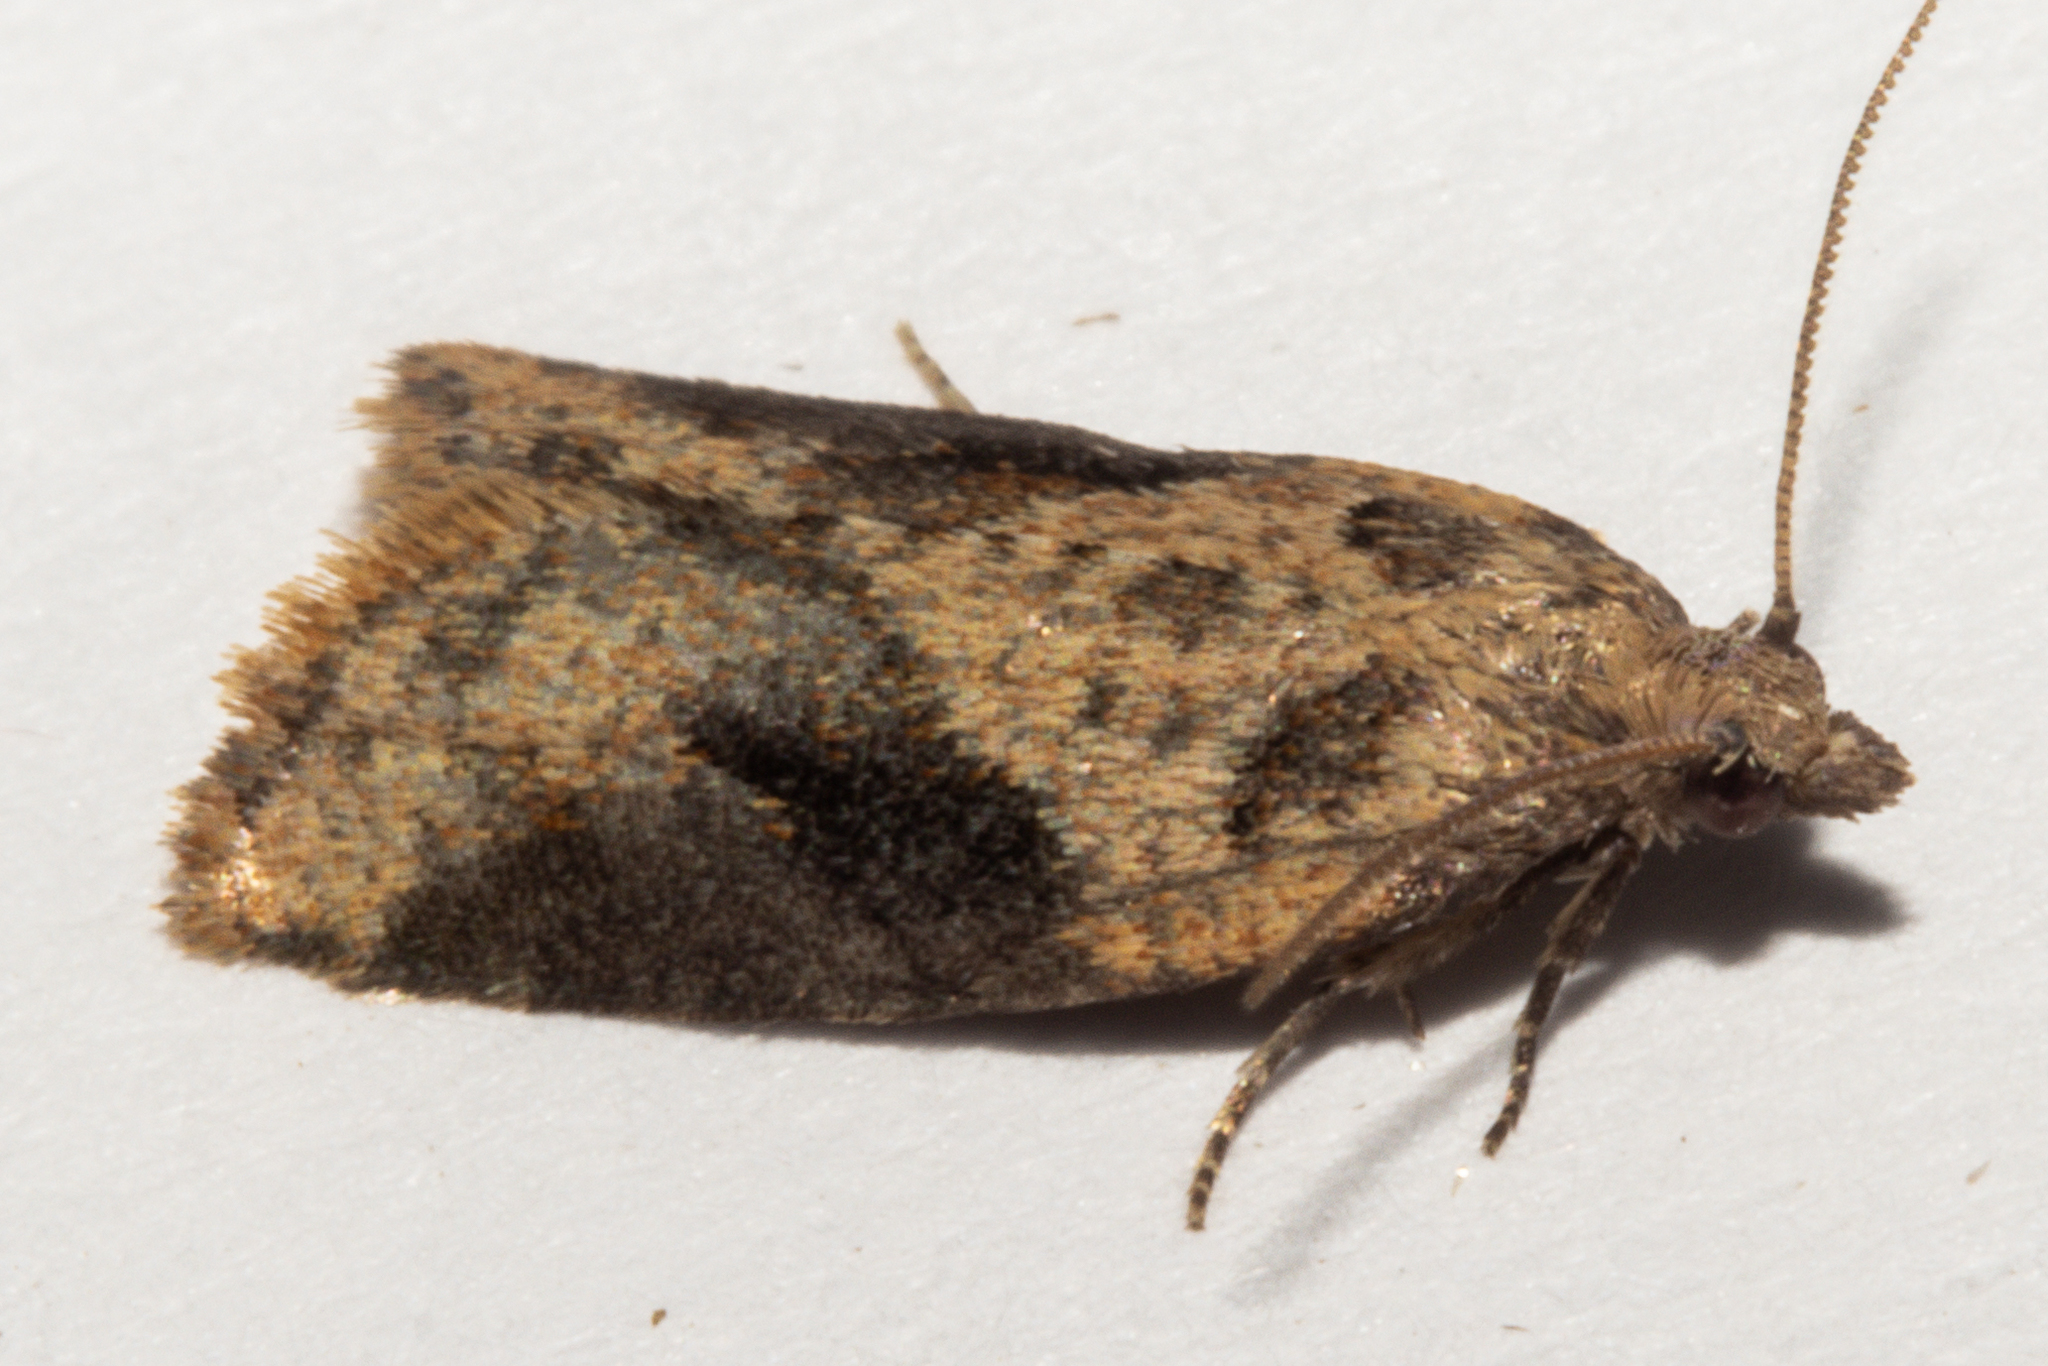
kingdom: Animalia
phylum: Arthropoda
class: Insecta
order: Lepidoptera
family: Tortricidae
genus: Capua
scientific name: Capua semiferana
